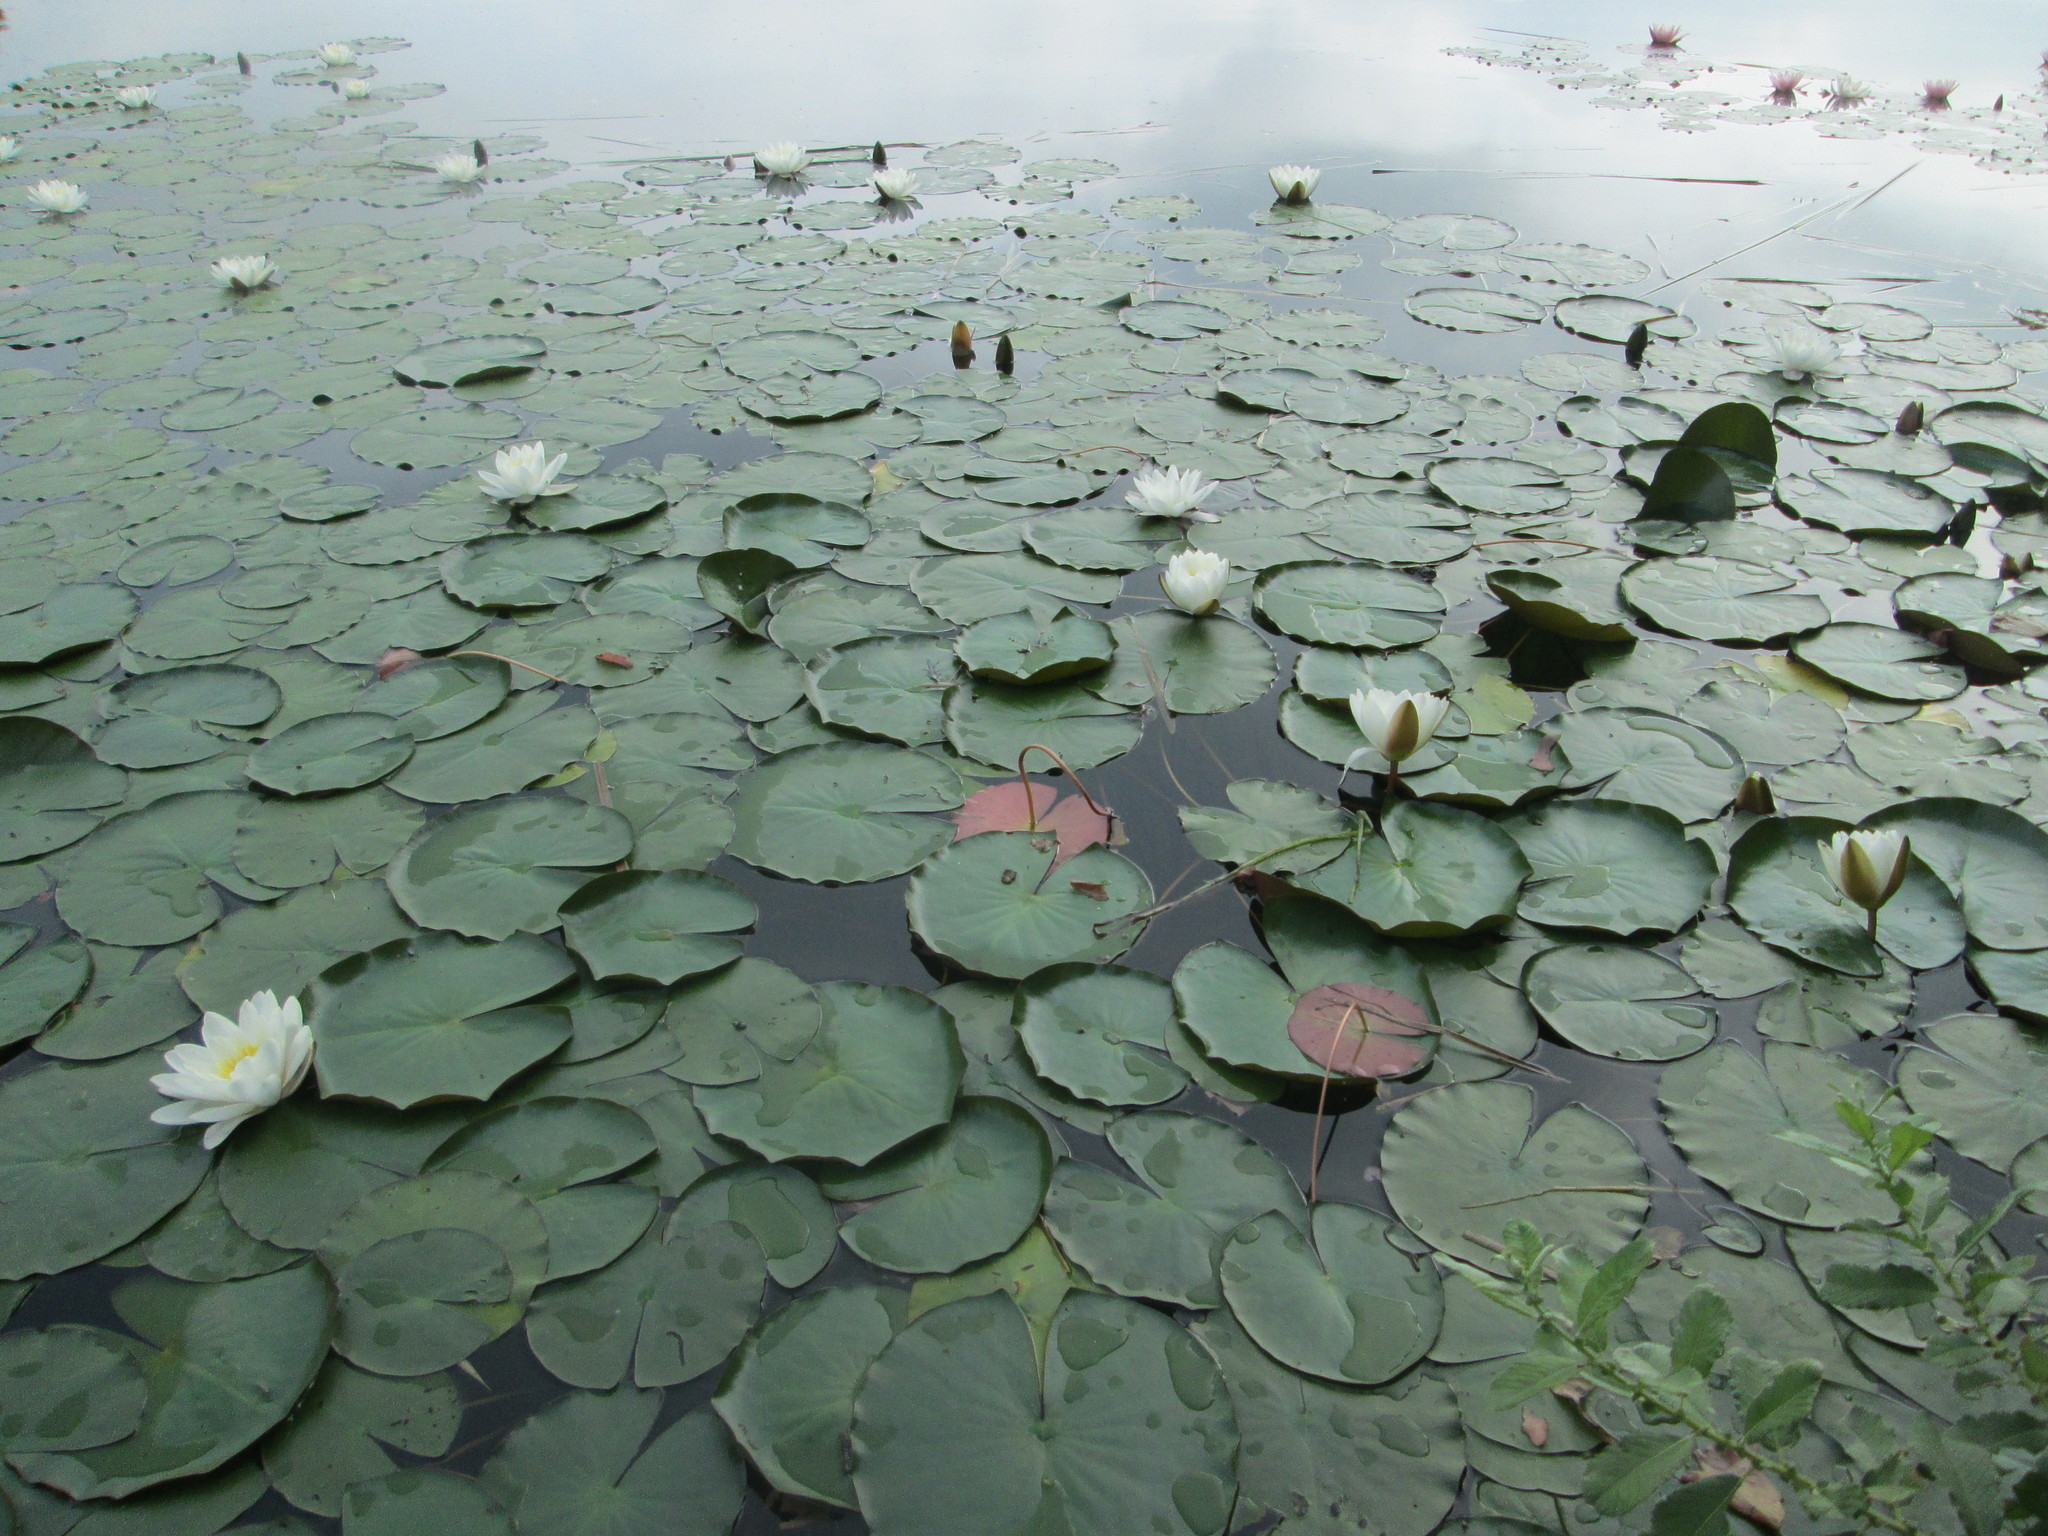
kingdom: Plantae
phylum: Tracheophyta
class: Magnoliopsida
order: Nymphaeales
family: Nymphaeaceae
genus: Nymphaea
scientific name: Nymphaea alba
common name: White water-lily
